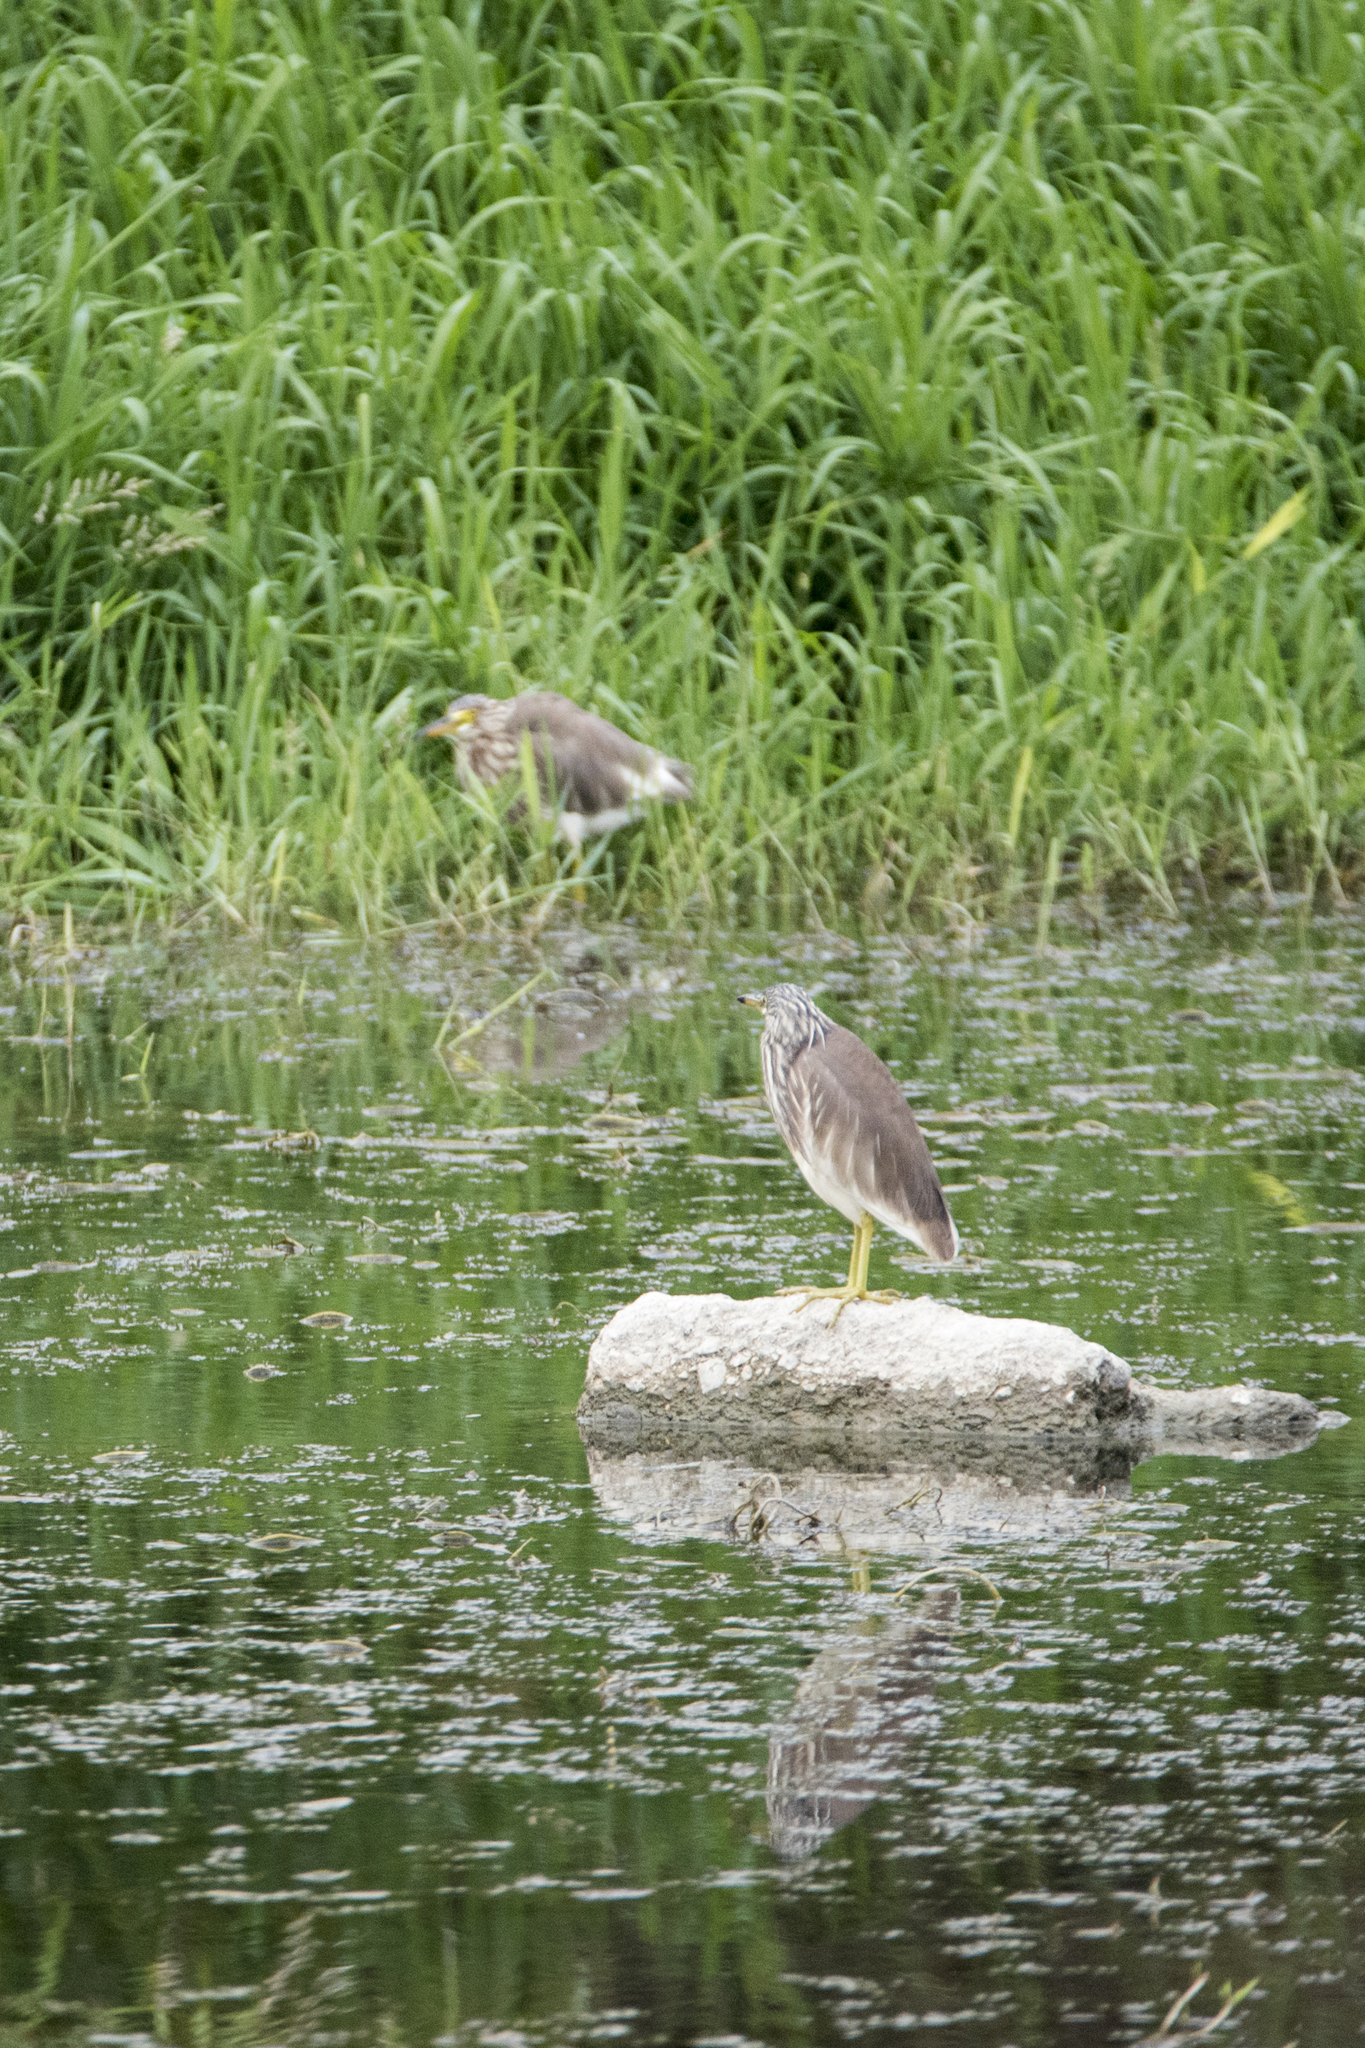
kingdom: Animalia
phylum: Chordata
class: Aves
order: Pelecaniformes
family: Ardeidae
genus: Ardeola
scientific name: Ardeola bacchus
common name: Chinese pond heron
